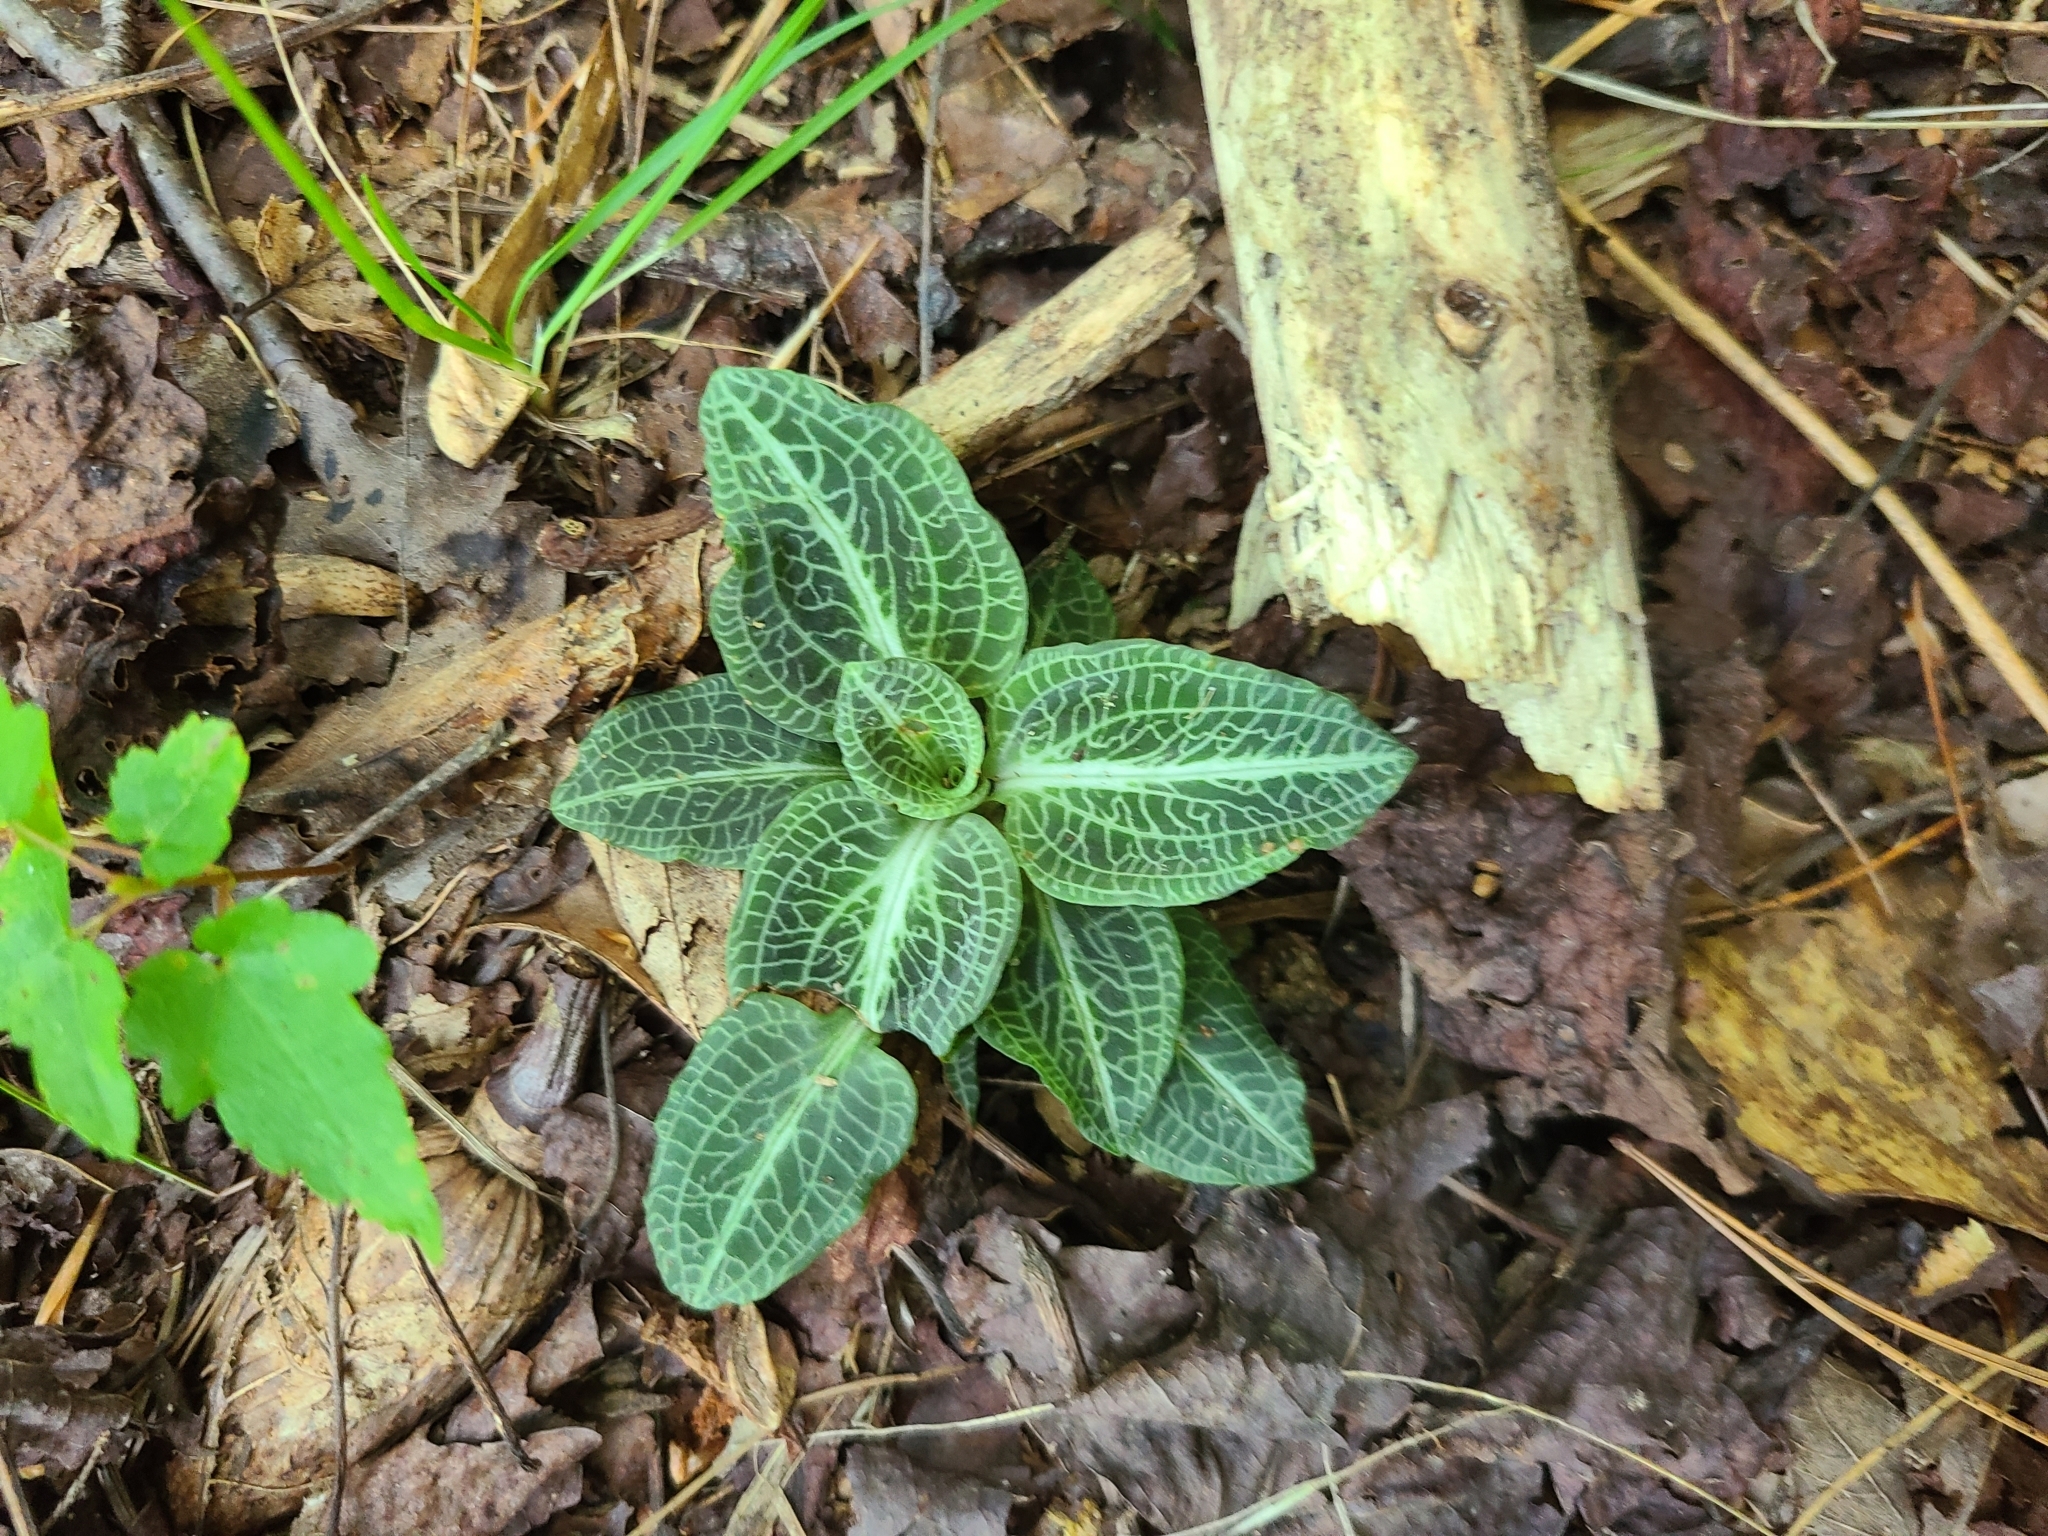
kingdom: Plantae
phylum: Tracheophyta
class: Liliopsida
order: Asparagales
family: Orchidaceae
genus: Goodyera
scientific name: Goodyera pubescens
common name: Downy rattlesnake-plantain
